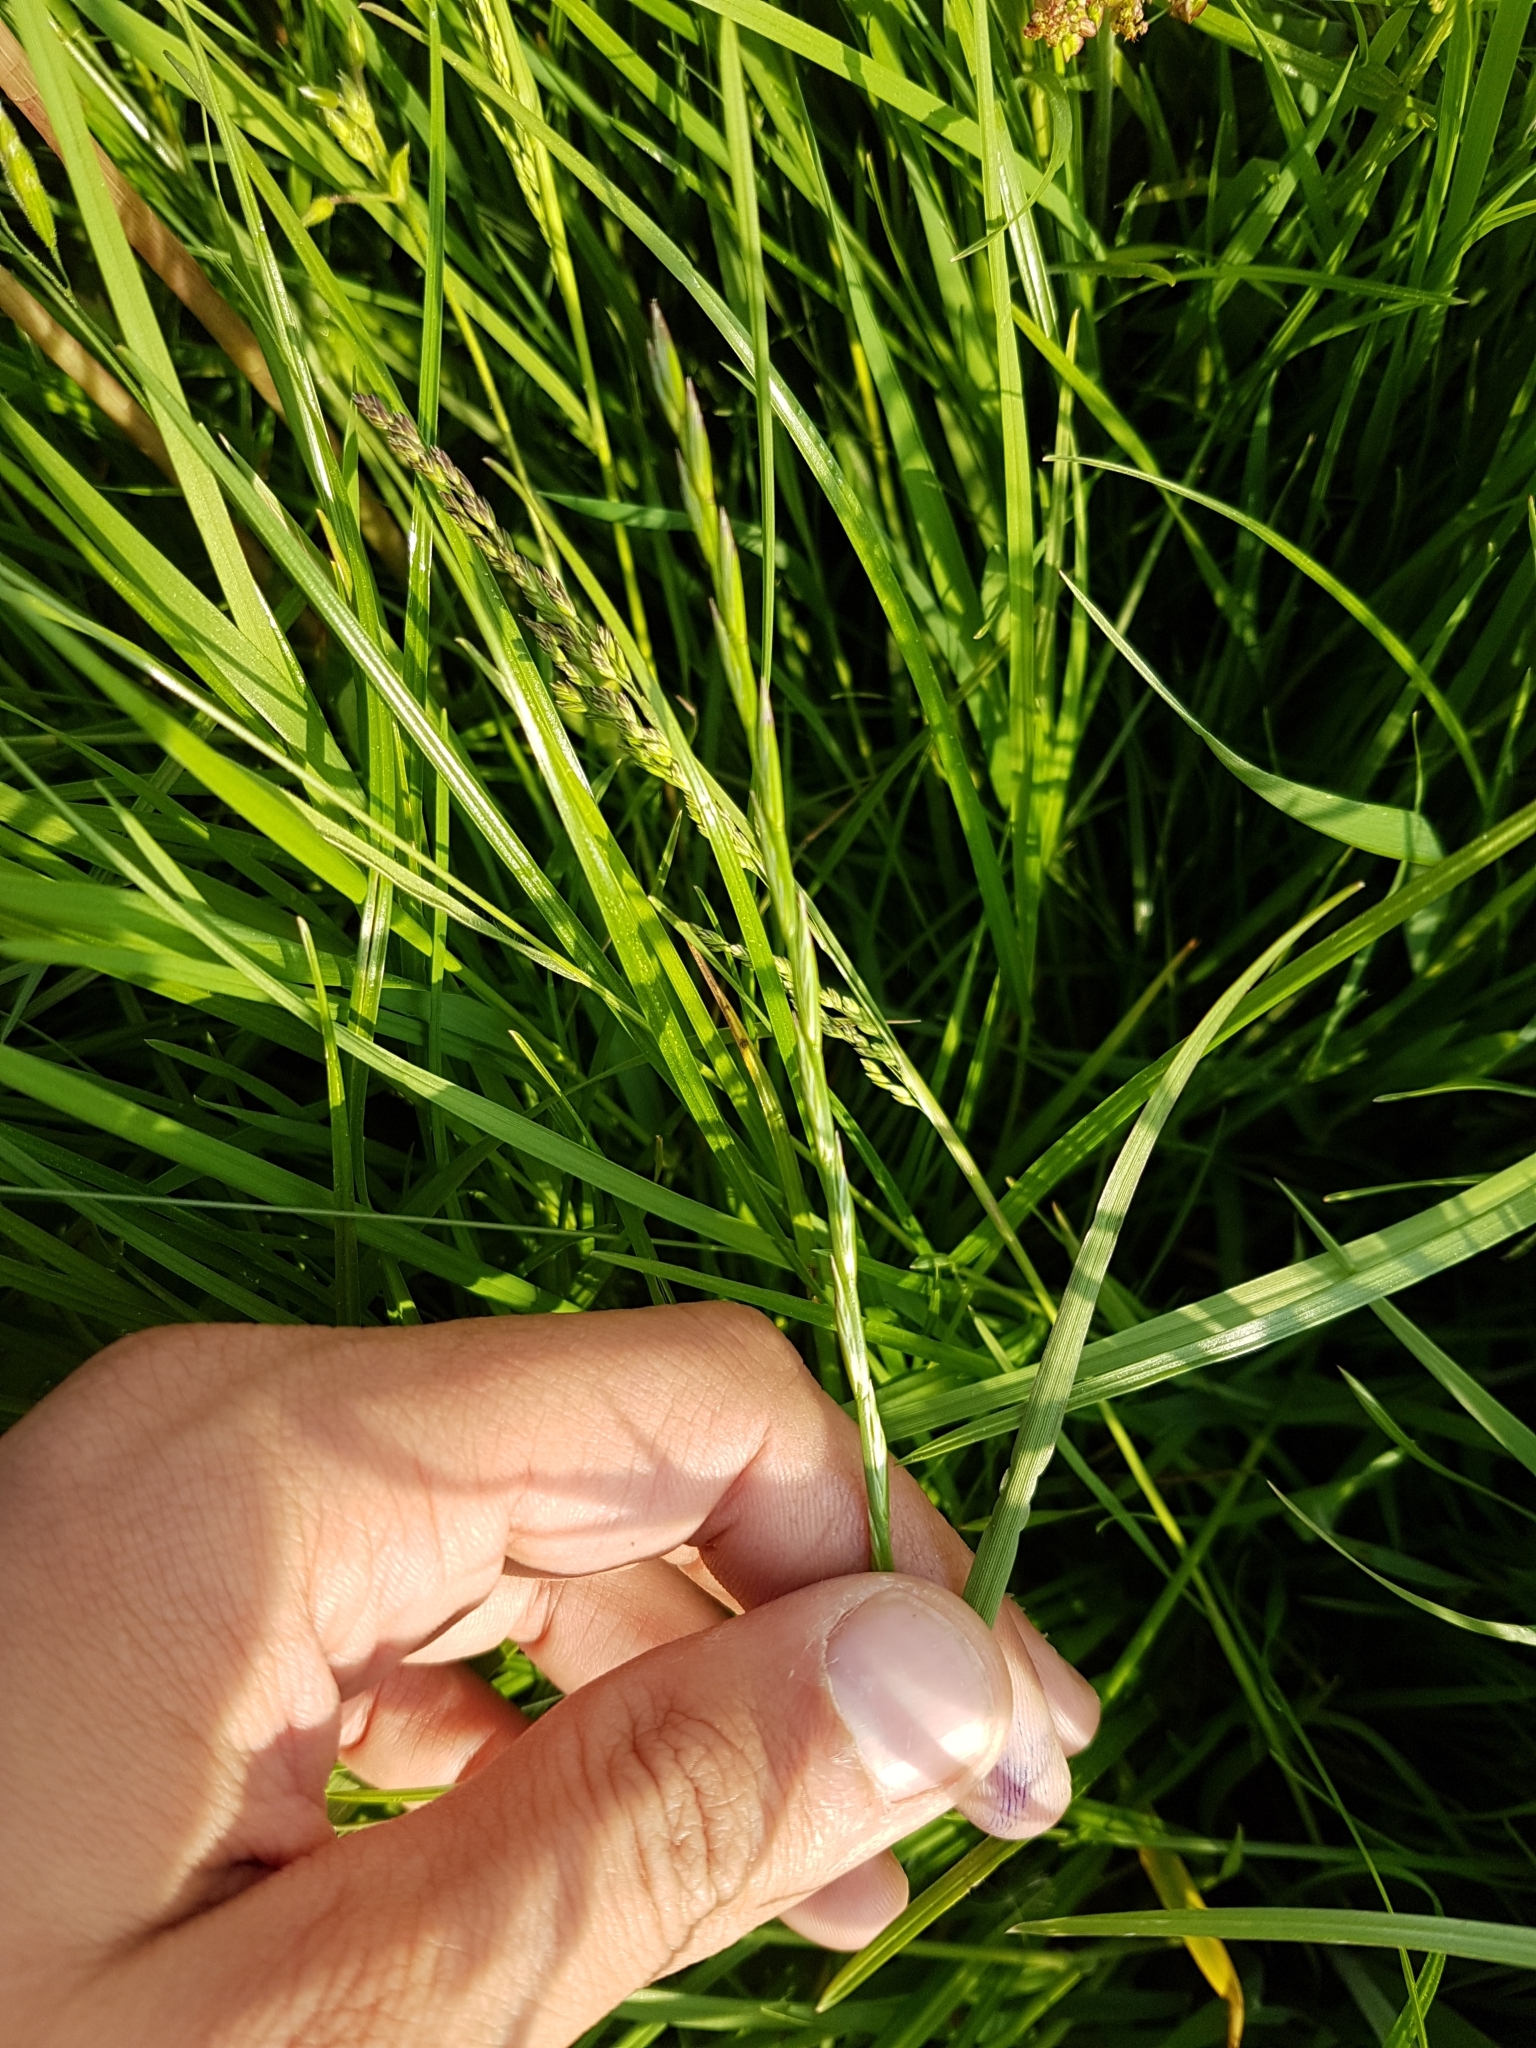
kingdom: Plantae
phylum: Tracheophyta
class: Liliopsida
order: Poales
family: Poaceae
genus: Lolium
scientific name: Lolium perenne
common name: Perennial ryegrass
